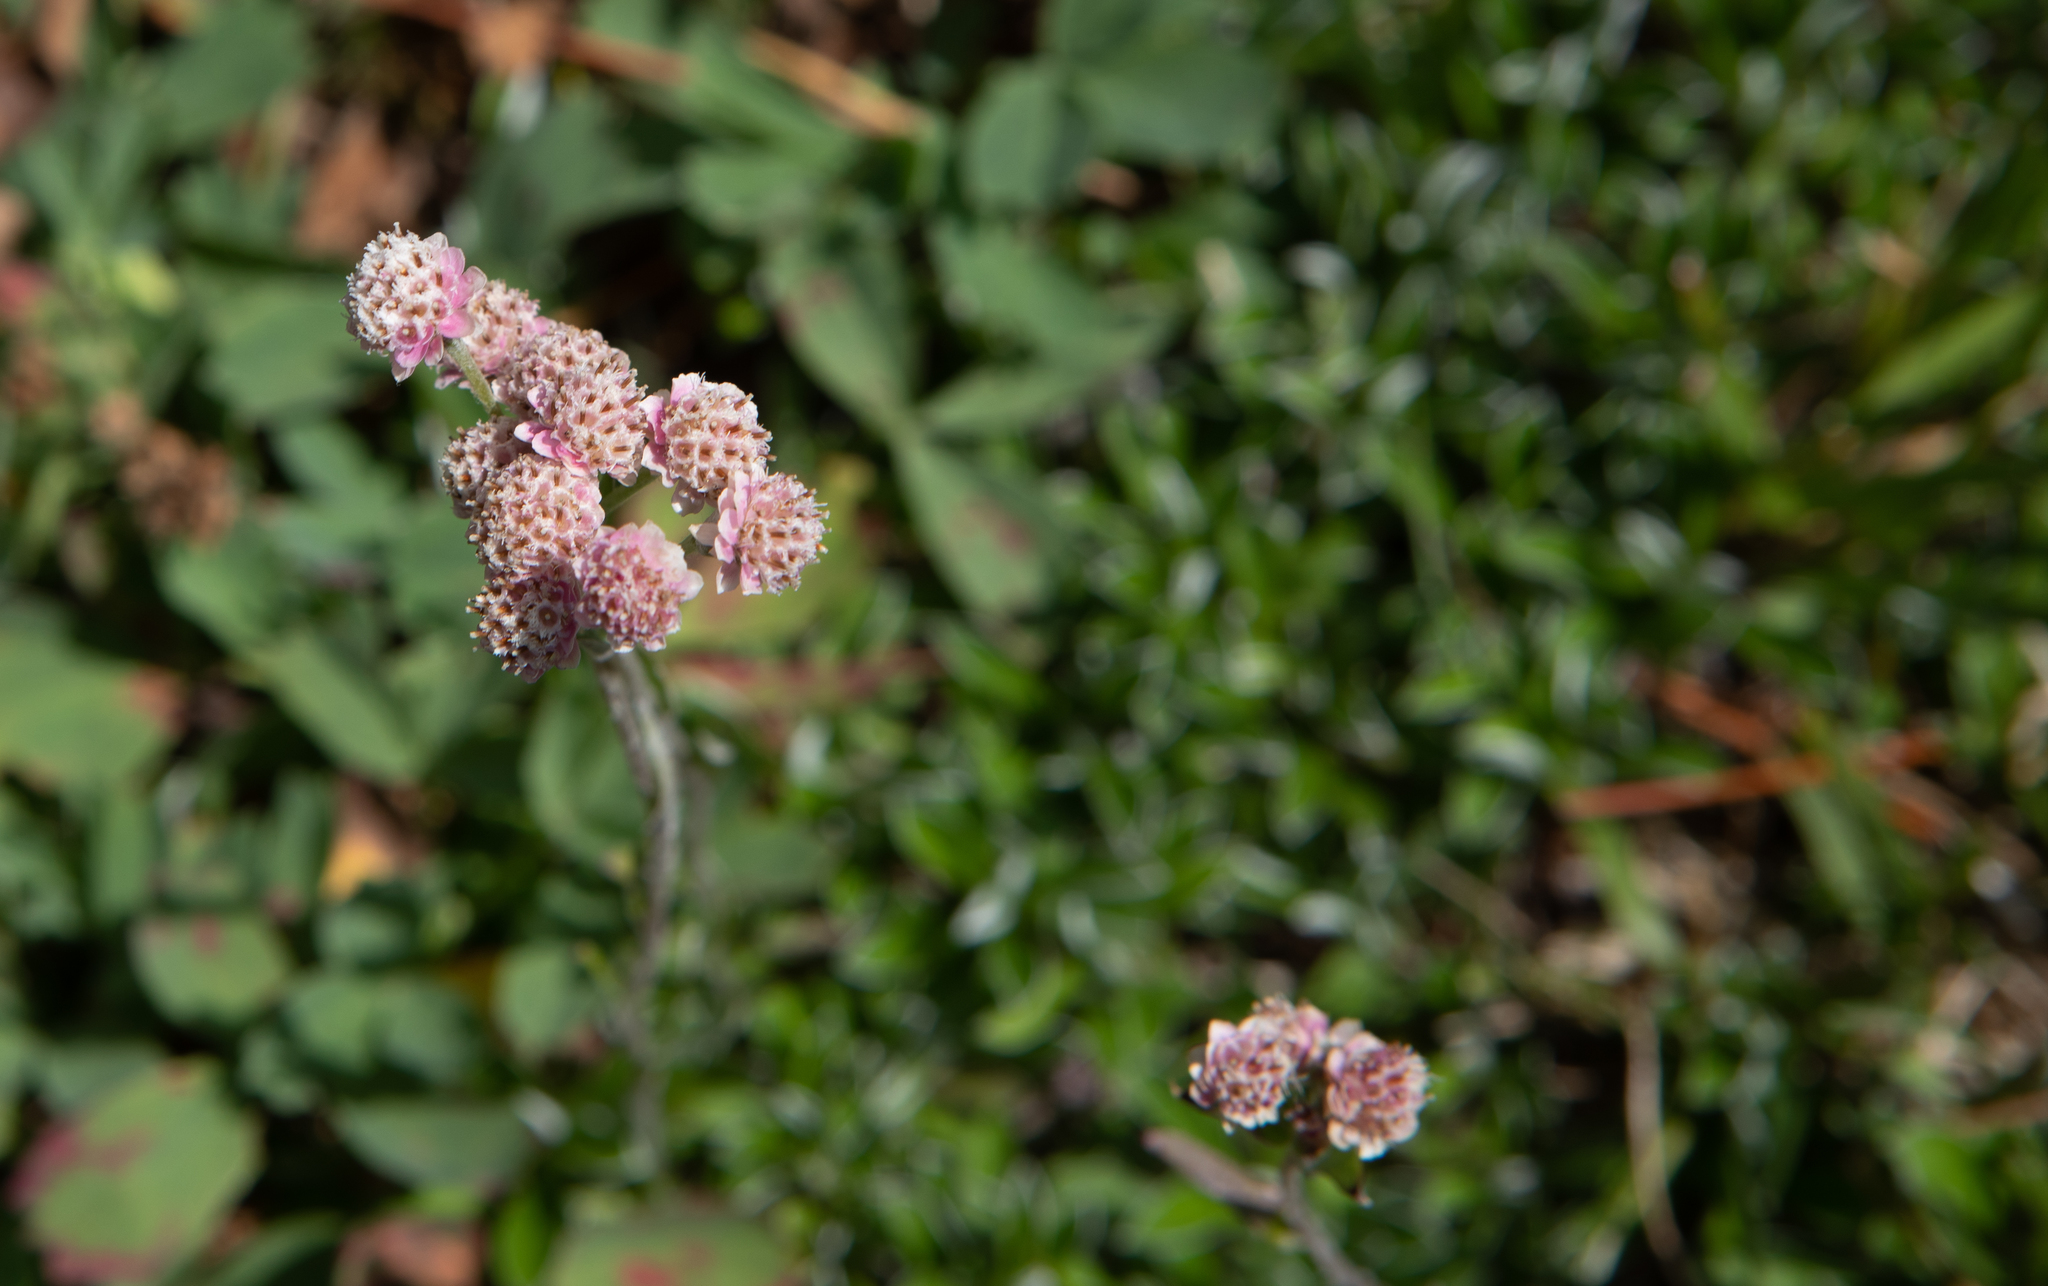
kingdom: Plantae
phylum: Tracheophyta
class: Magnoliopsida
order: Asterales
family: Asteraceae
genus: Antennaria
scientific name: Antennaria dioica
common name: Mountain everlasting
